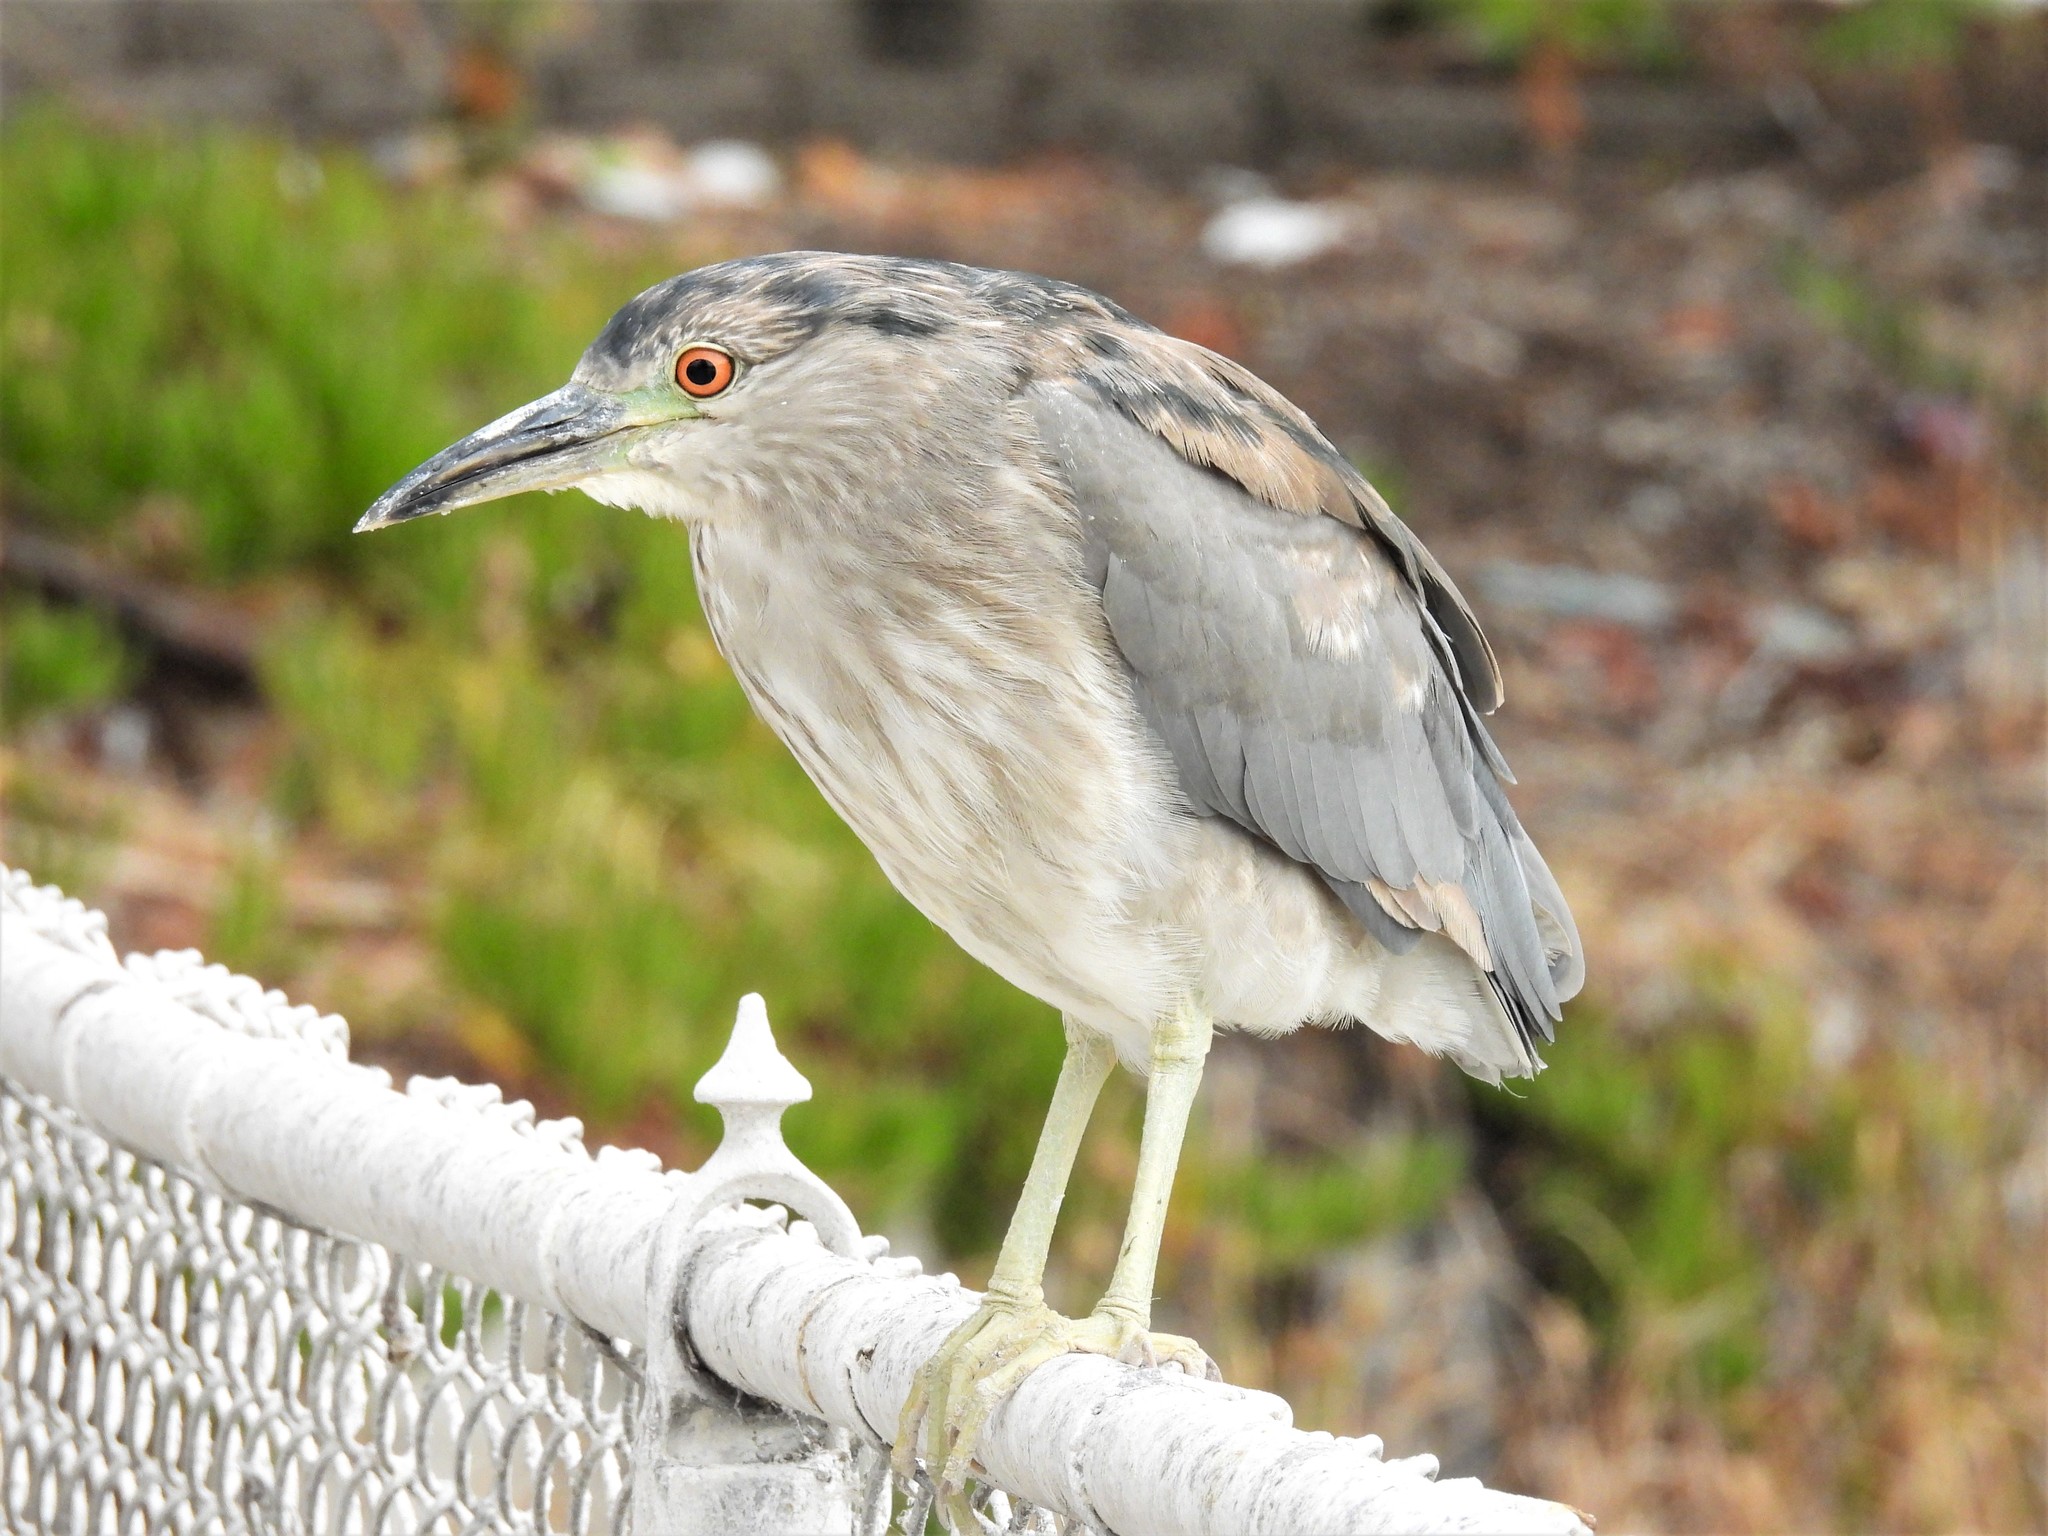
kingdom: Animalia
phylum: Chordata
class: Aves
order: Pelecaniformes
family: Ardeidae
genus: Nycticorax
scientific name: Nycticorax nycticorax
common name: Black-crowned night heron
